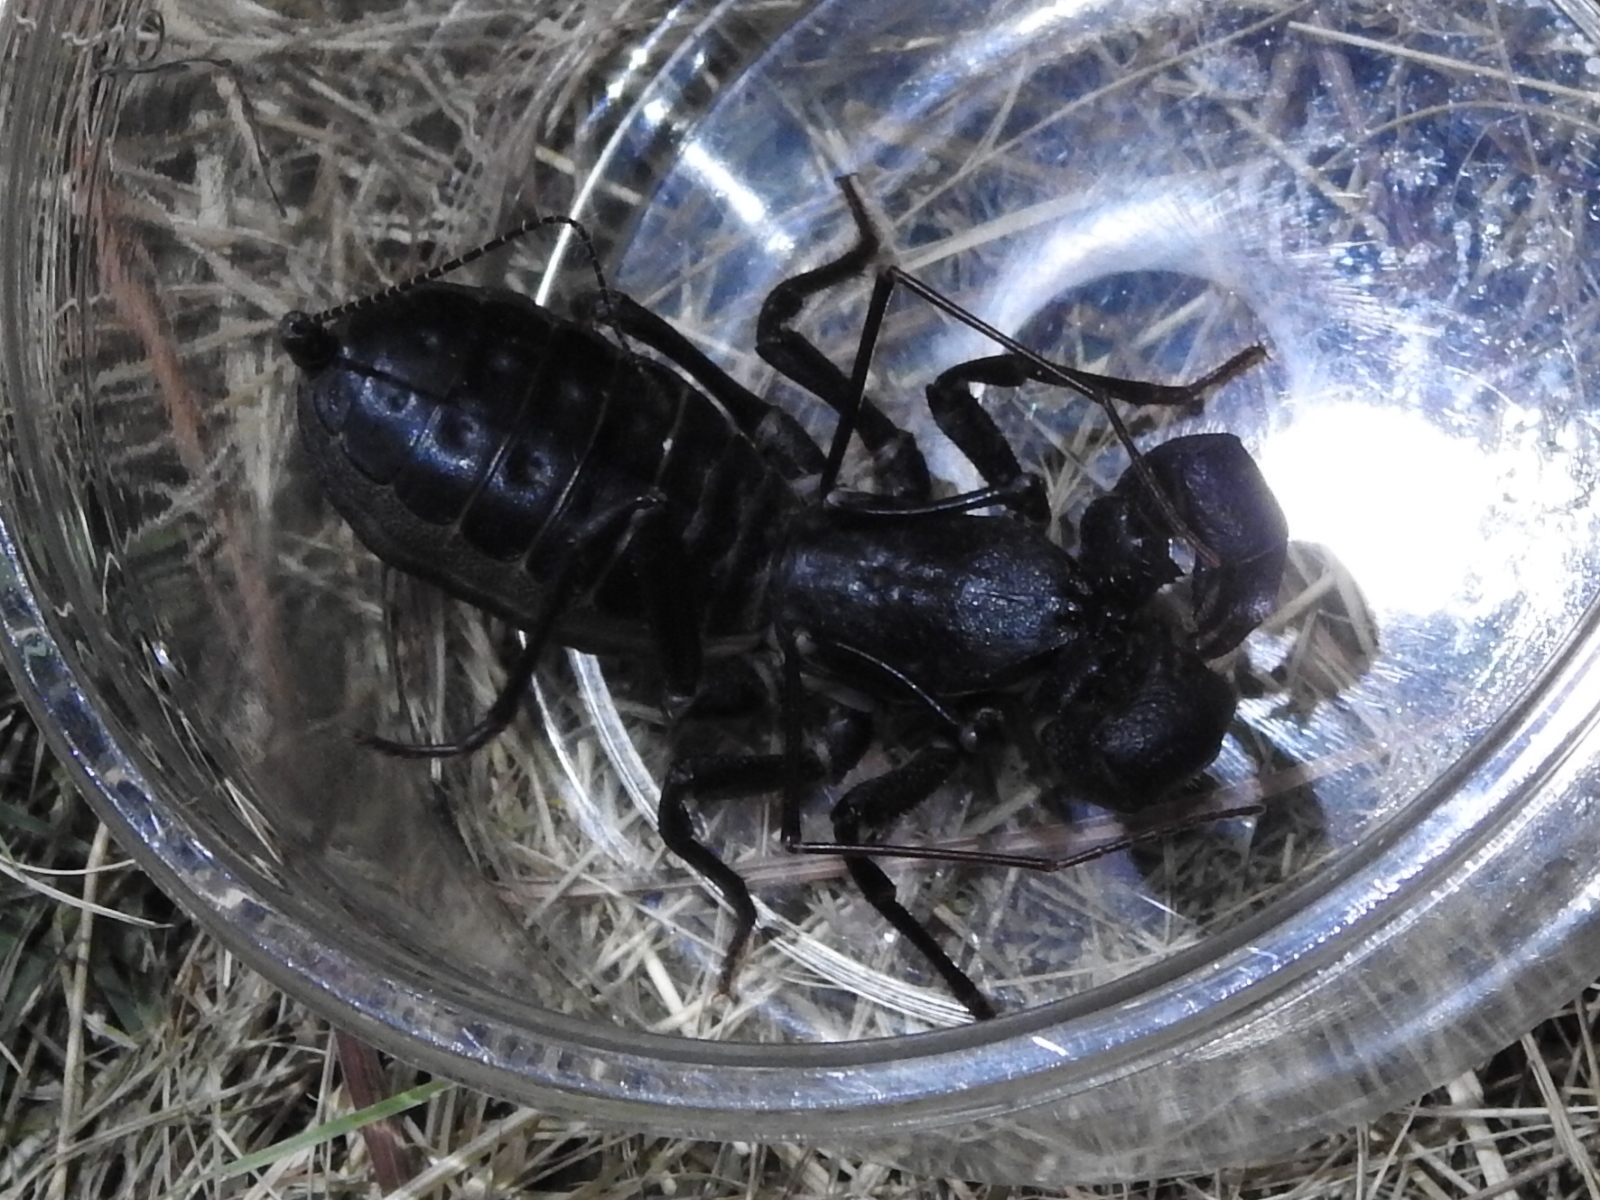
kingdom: Animalia
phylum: Arthropoda
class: Arachnida
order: Uropygi
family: Thelyphonidae
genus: Mastigoproctus
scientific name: Mastigoproctus giganteus
